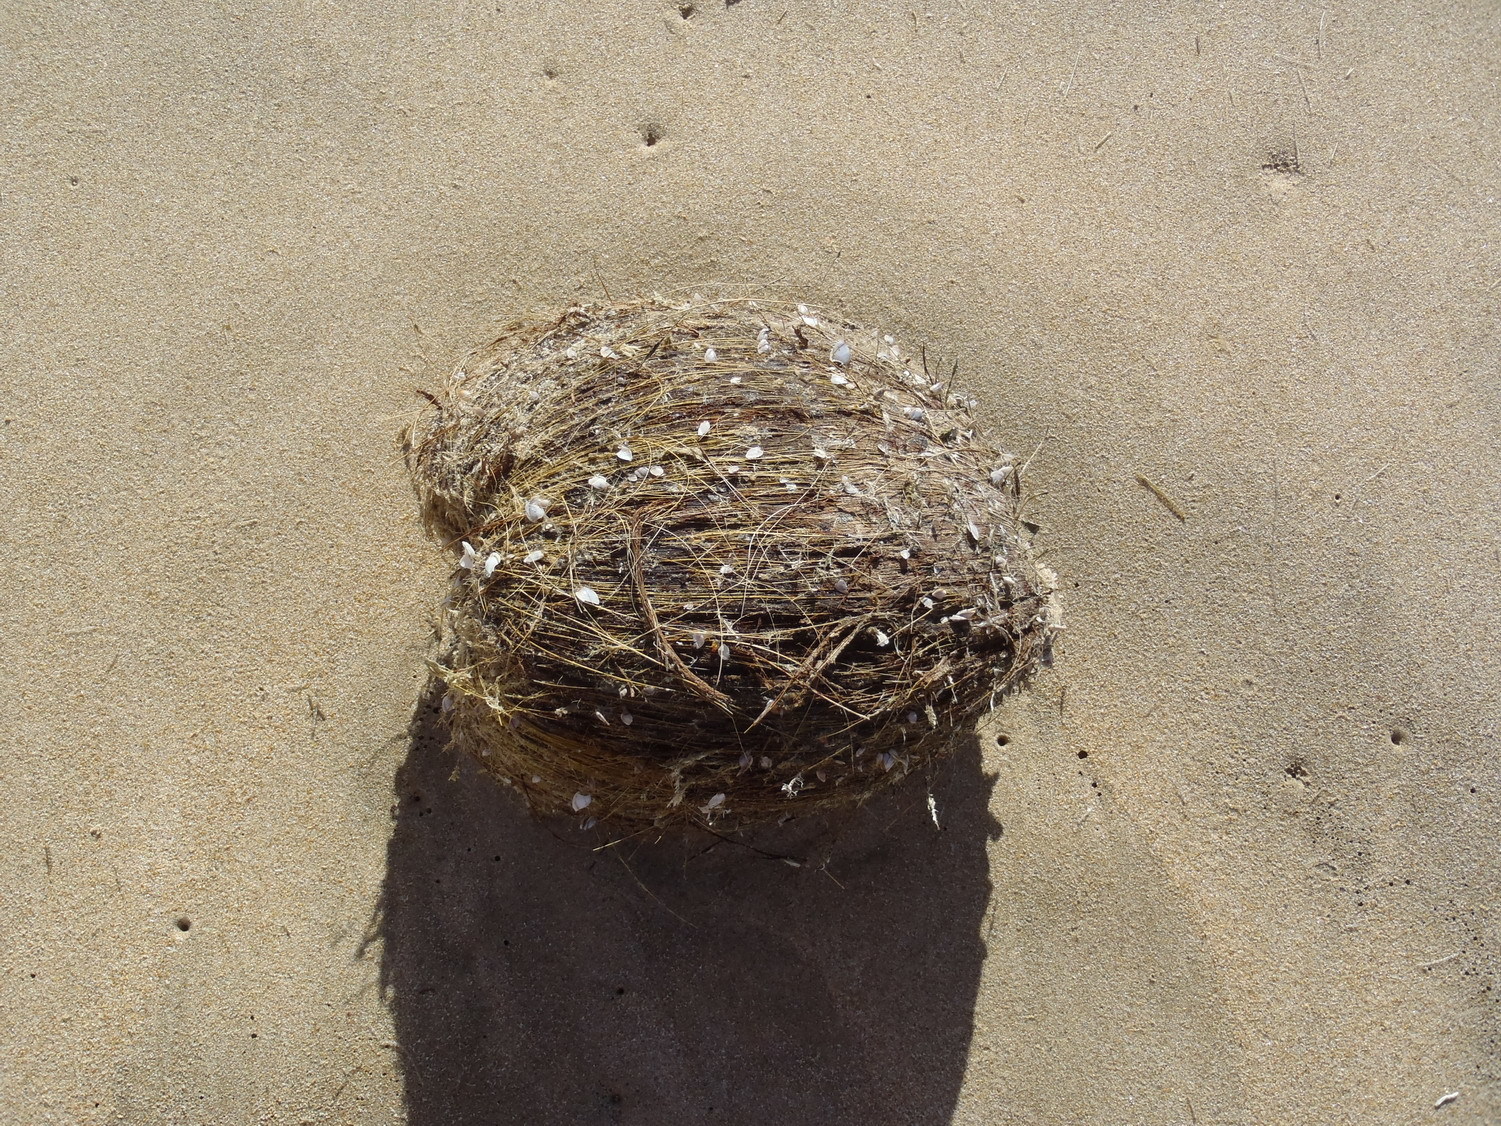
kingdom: Plantae
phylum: Tracheophyta
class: Liliopsida
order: Arecales
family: Arecaceae
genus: Cocos
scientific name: Cocos nucifera
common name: Coconut palm
